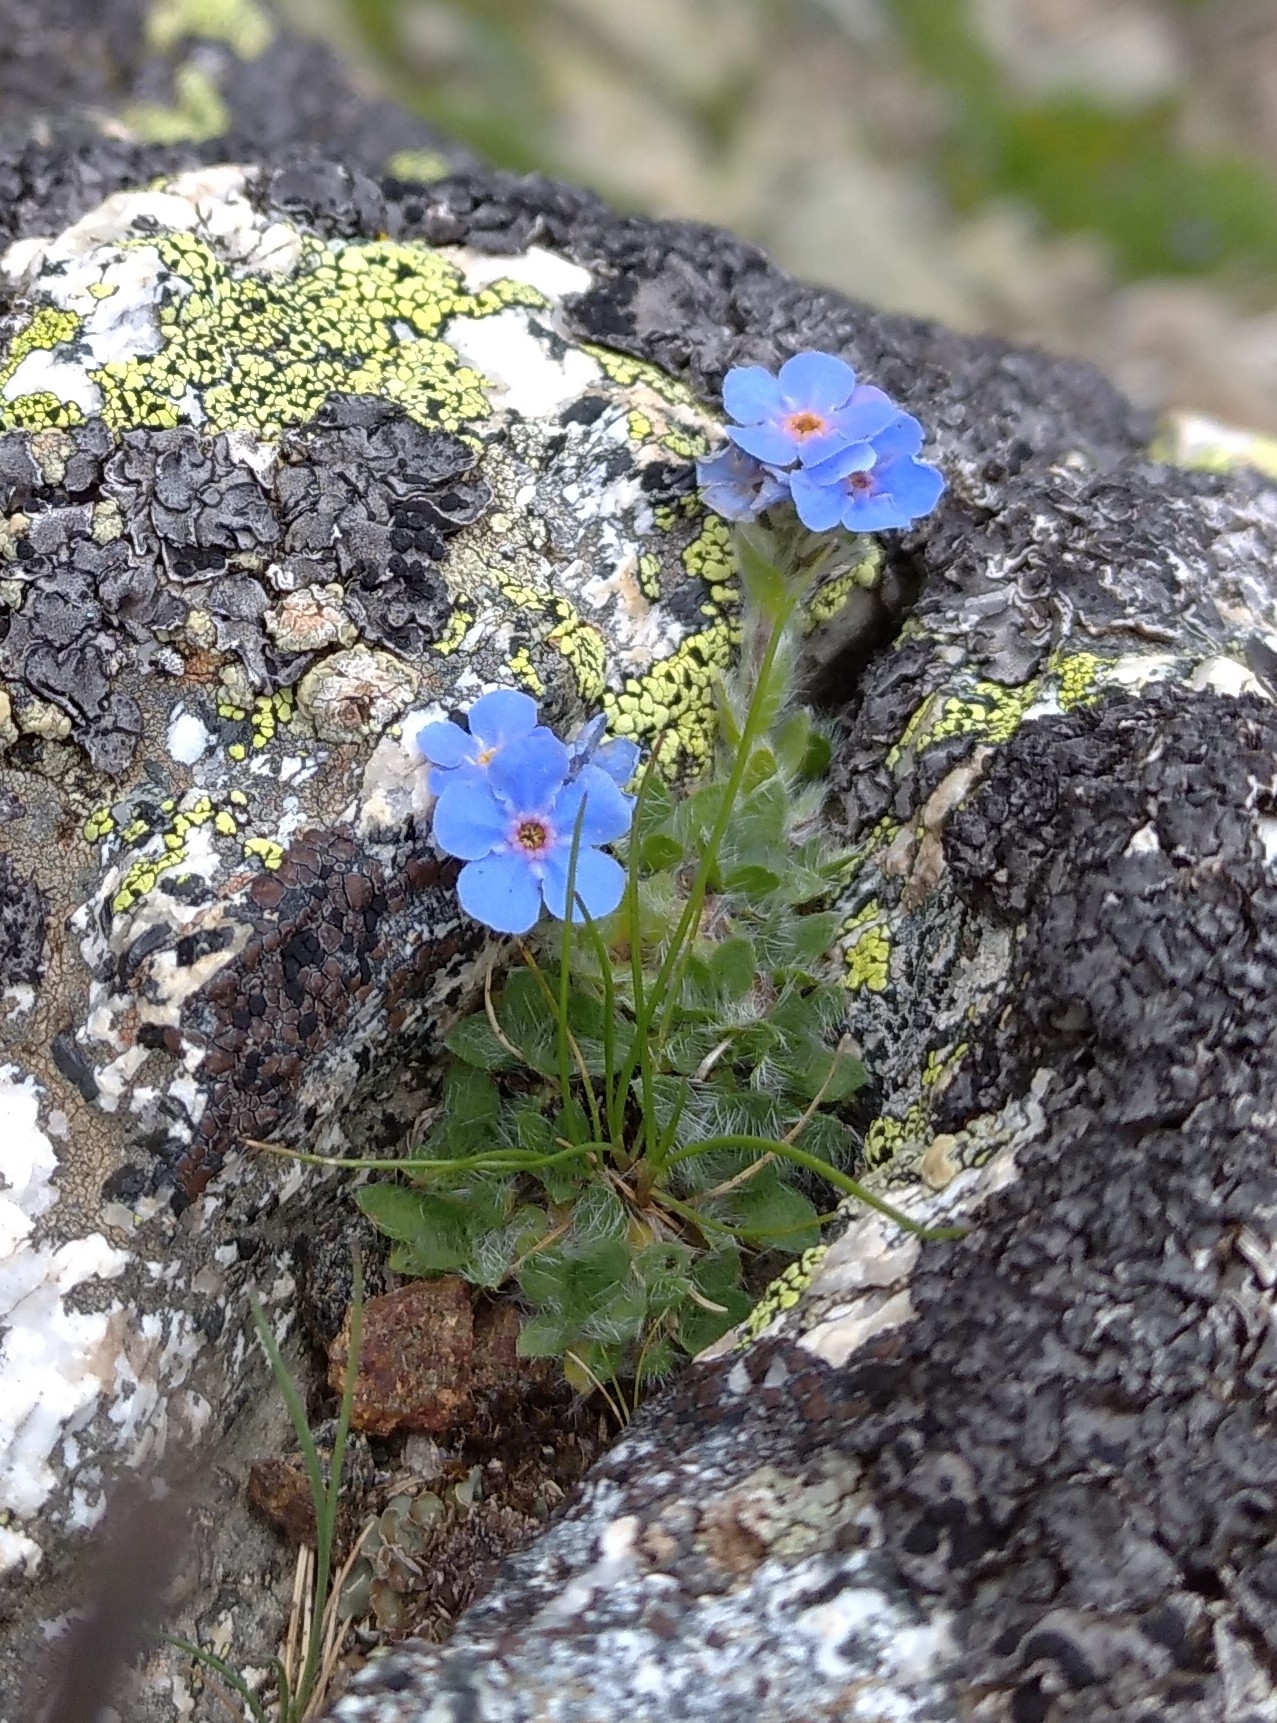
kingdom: Plantae
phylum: Tracheophyta
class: Magnoliopsida
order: Boraginales
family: Boraginaceae
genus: Eritrichium
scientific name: Eritrichium nanum
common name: King-of-the-alps
